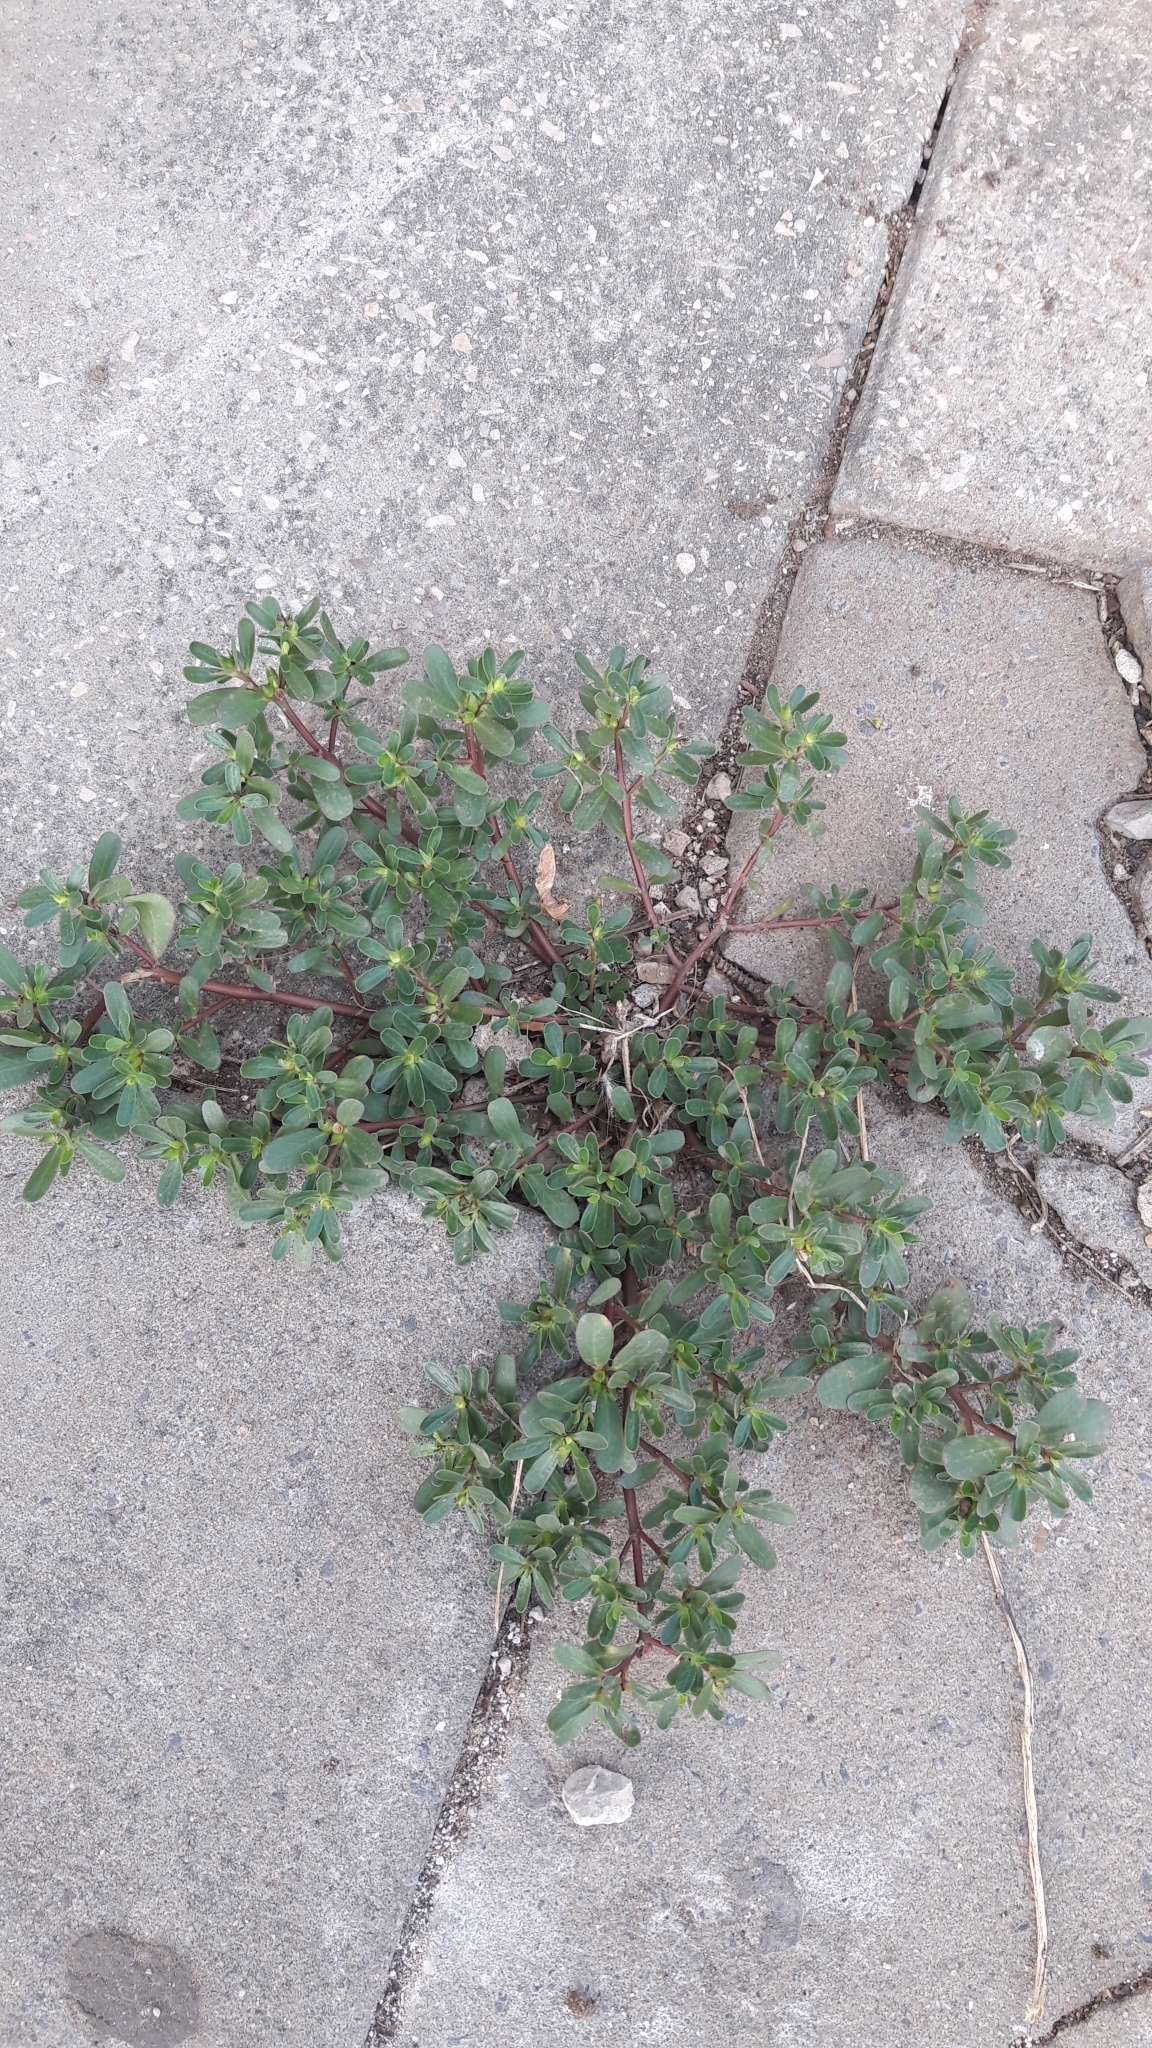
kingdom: Plantae
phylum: Tracheophyta
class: Magnoliopsida
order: Caryophyllales
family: Portulacaceae
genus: Portulaca
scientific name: Portulaca oleracea
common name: Common purslane
